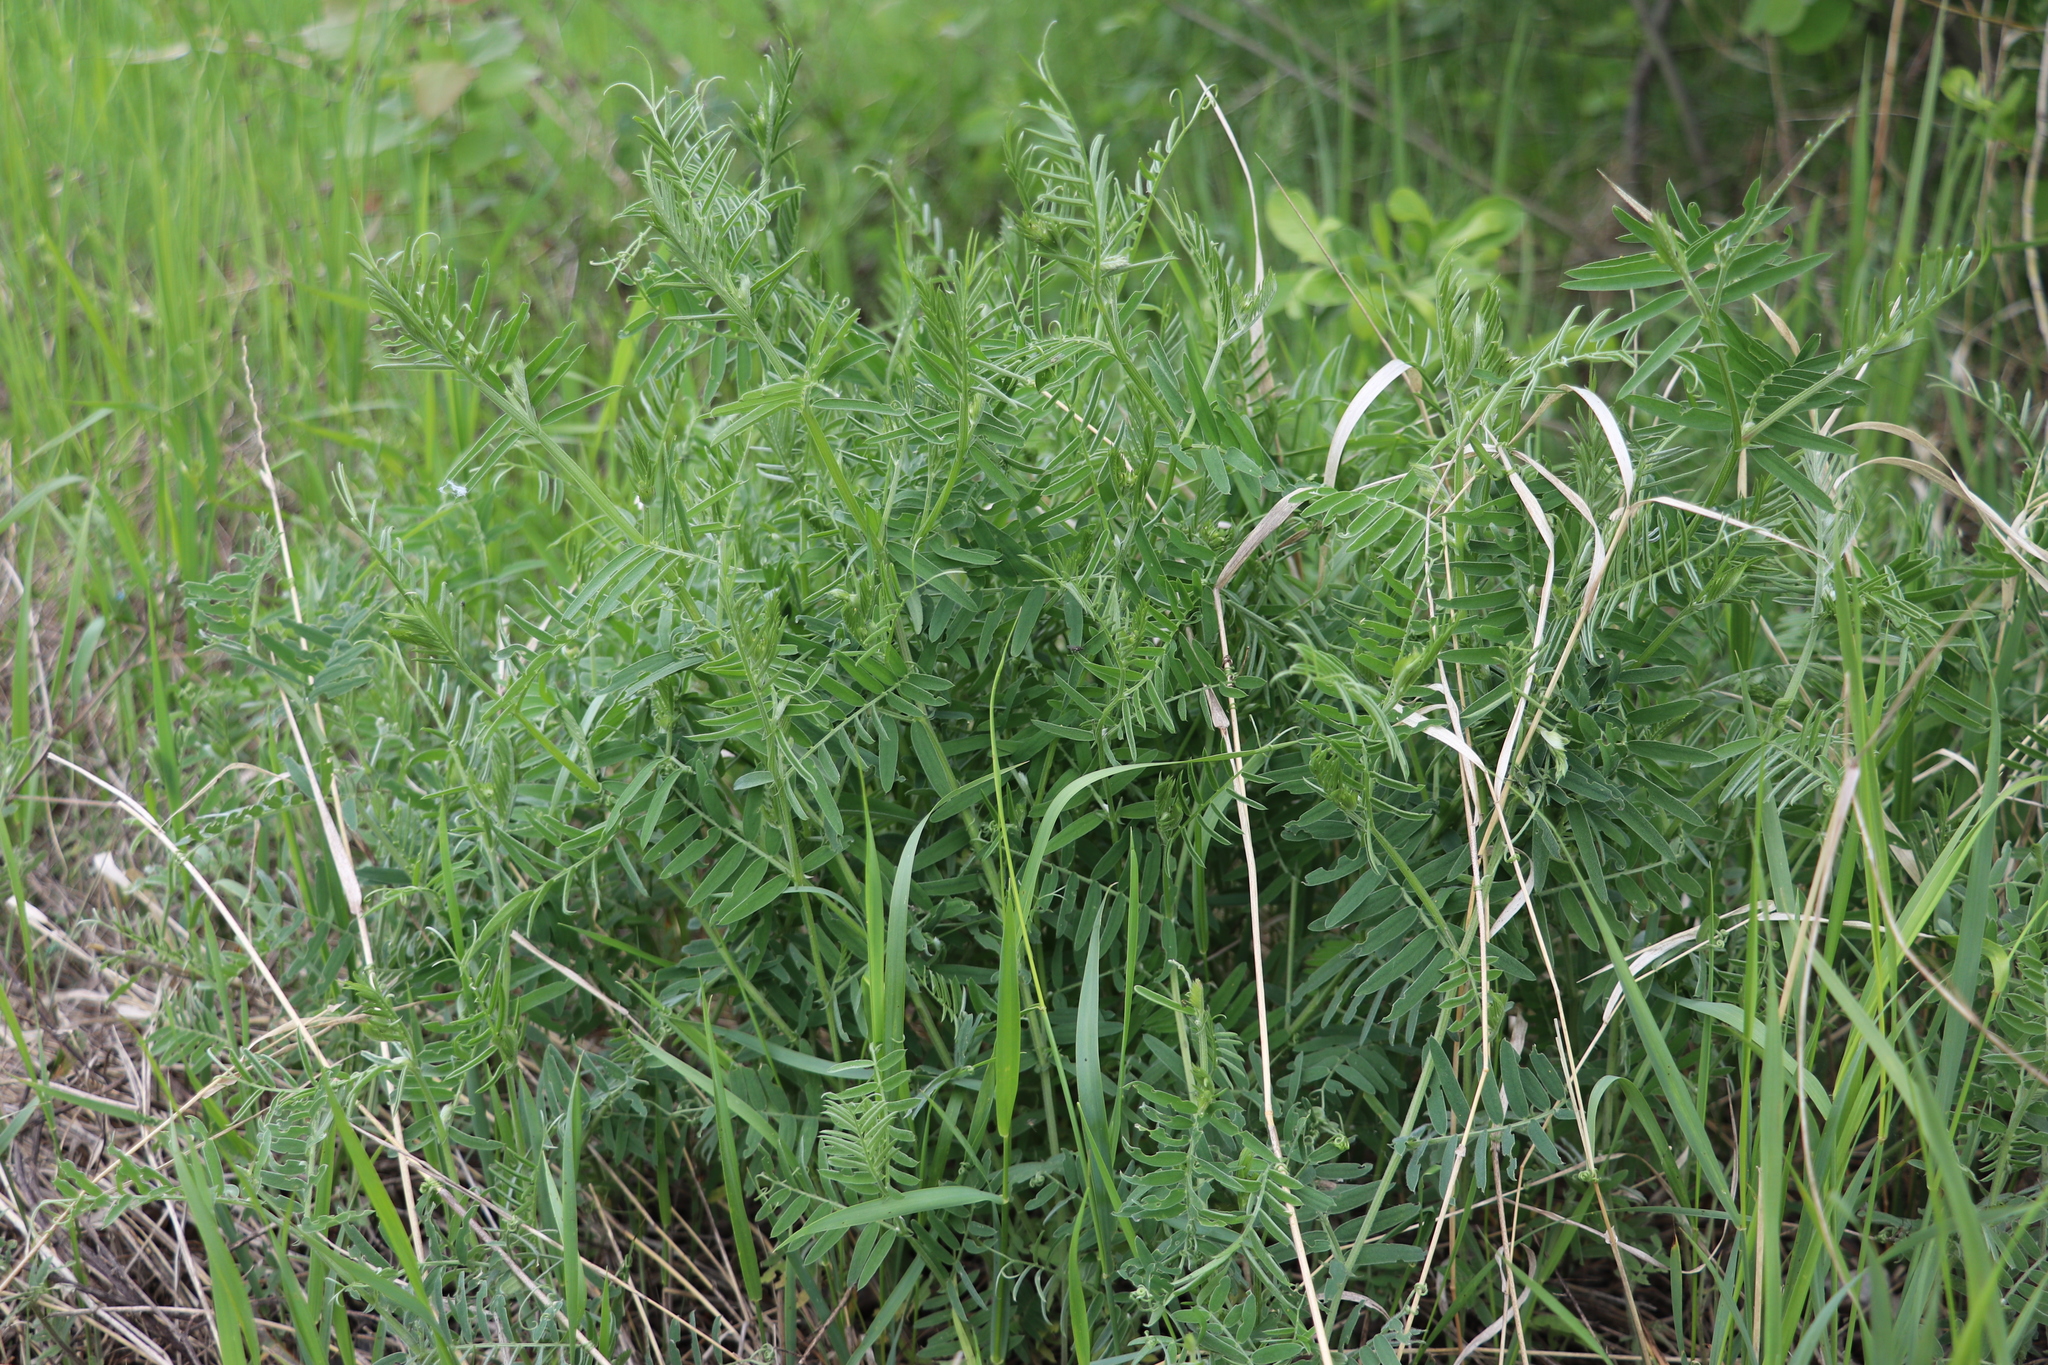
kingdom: Plantae
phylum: Tracheophyta
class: Magnoliopsida
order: Fabales
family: Fabaceae
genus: Vicia
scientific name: Vicia cracca
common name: Bird vetch
